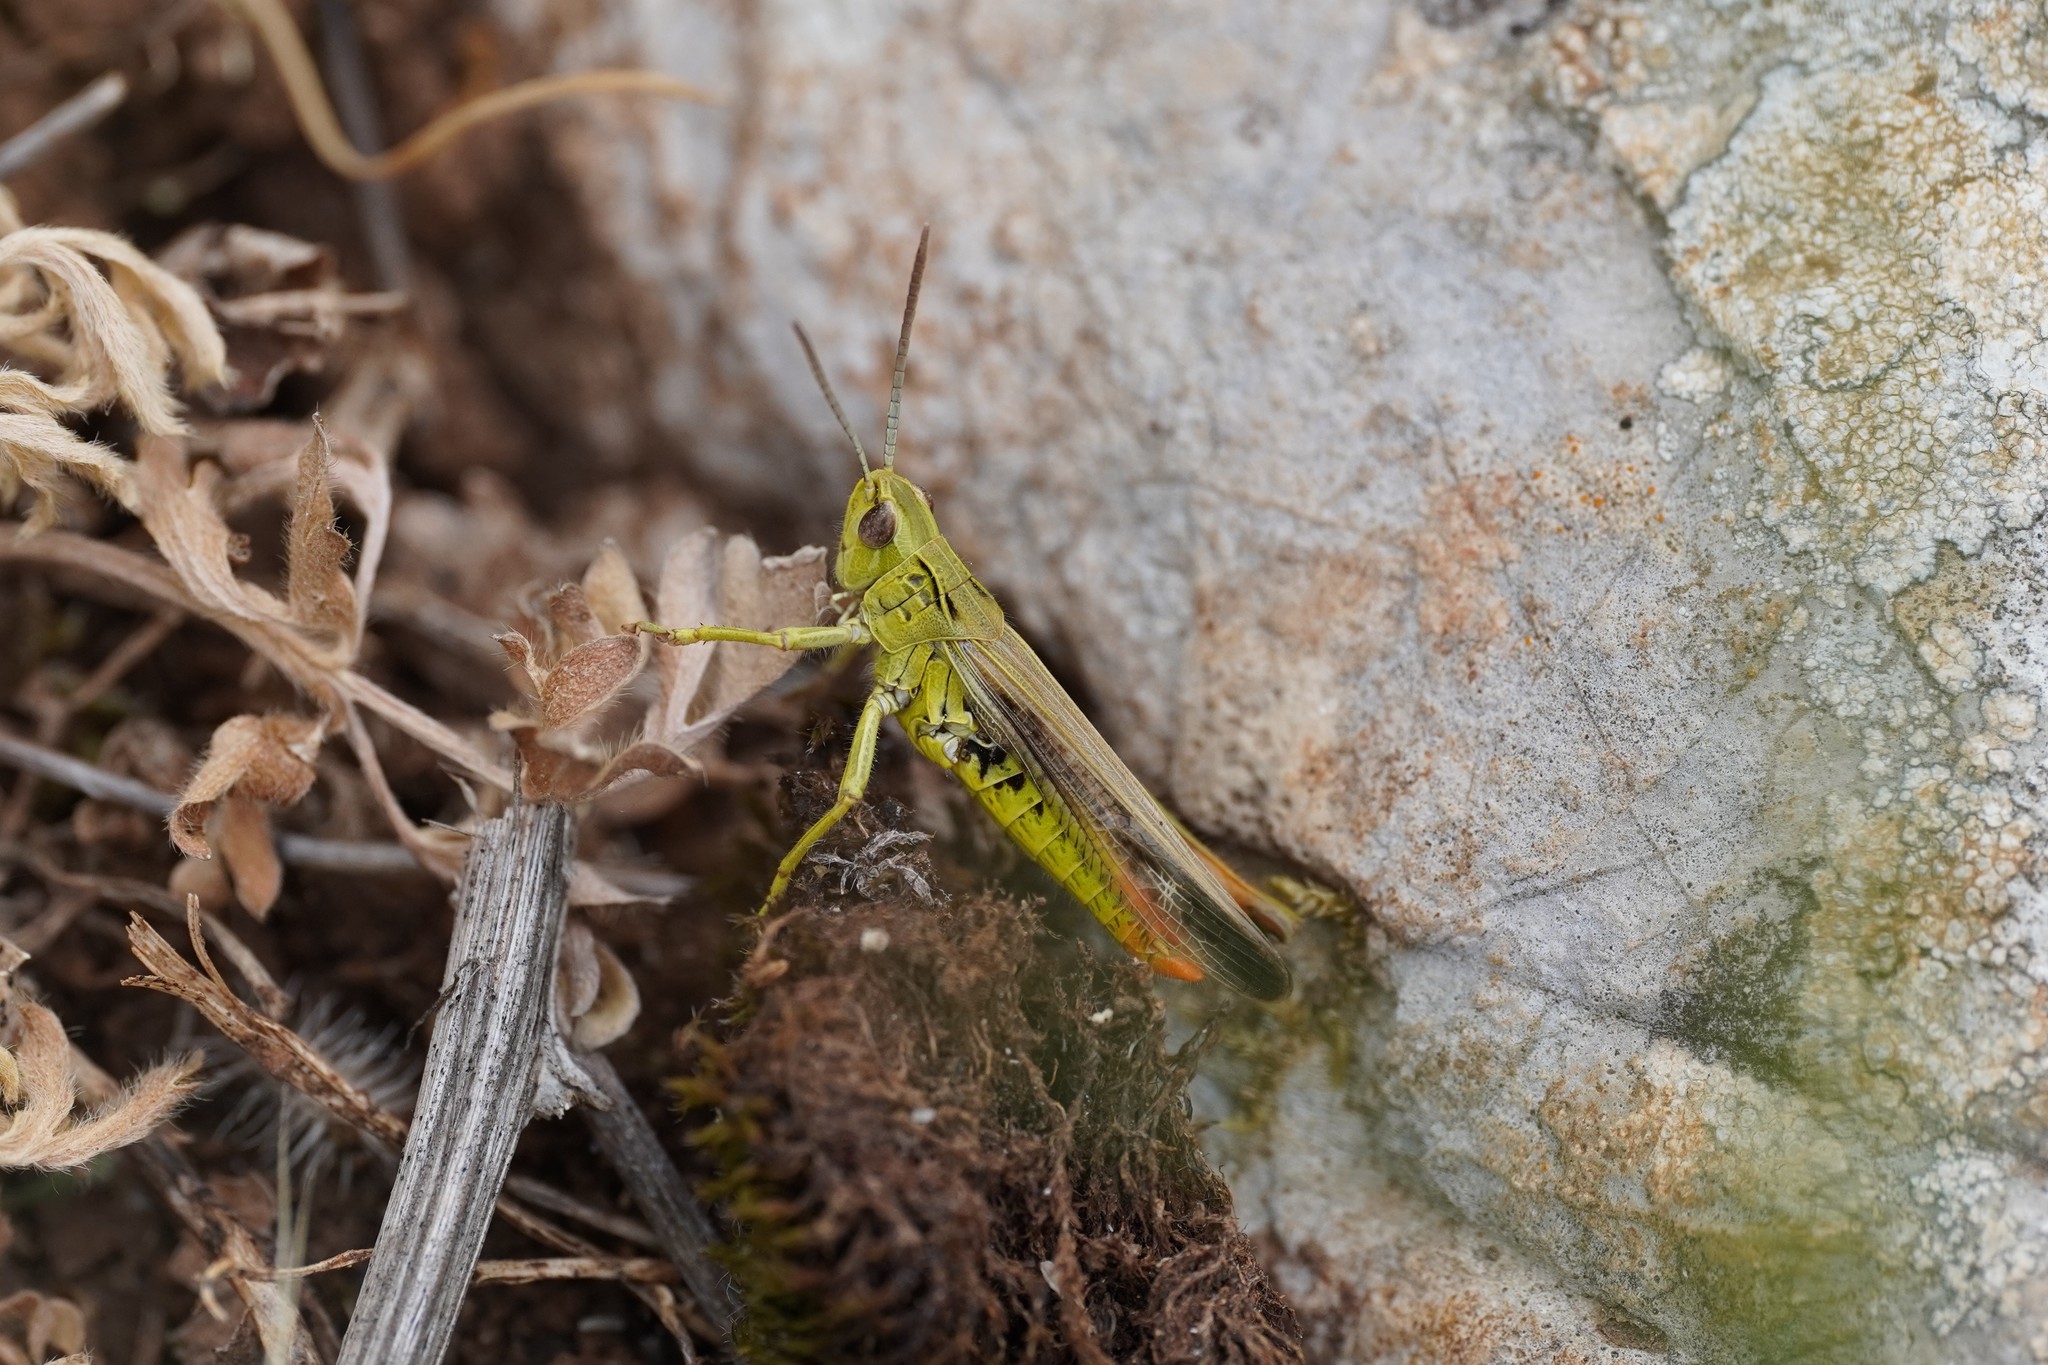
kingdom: Animalia
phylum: Arthropoda
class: Insecta
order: Orthoptera
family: Acrididae
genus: Chorthippus
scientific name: Chorthippus apicalis
